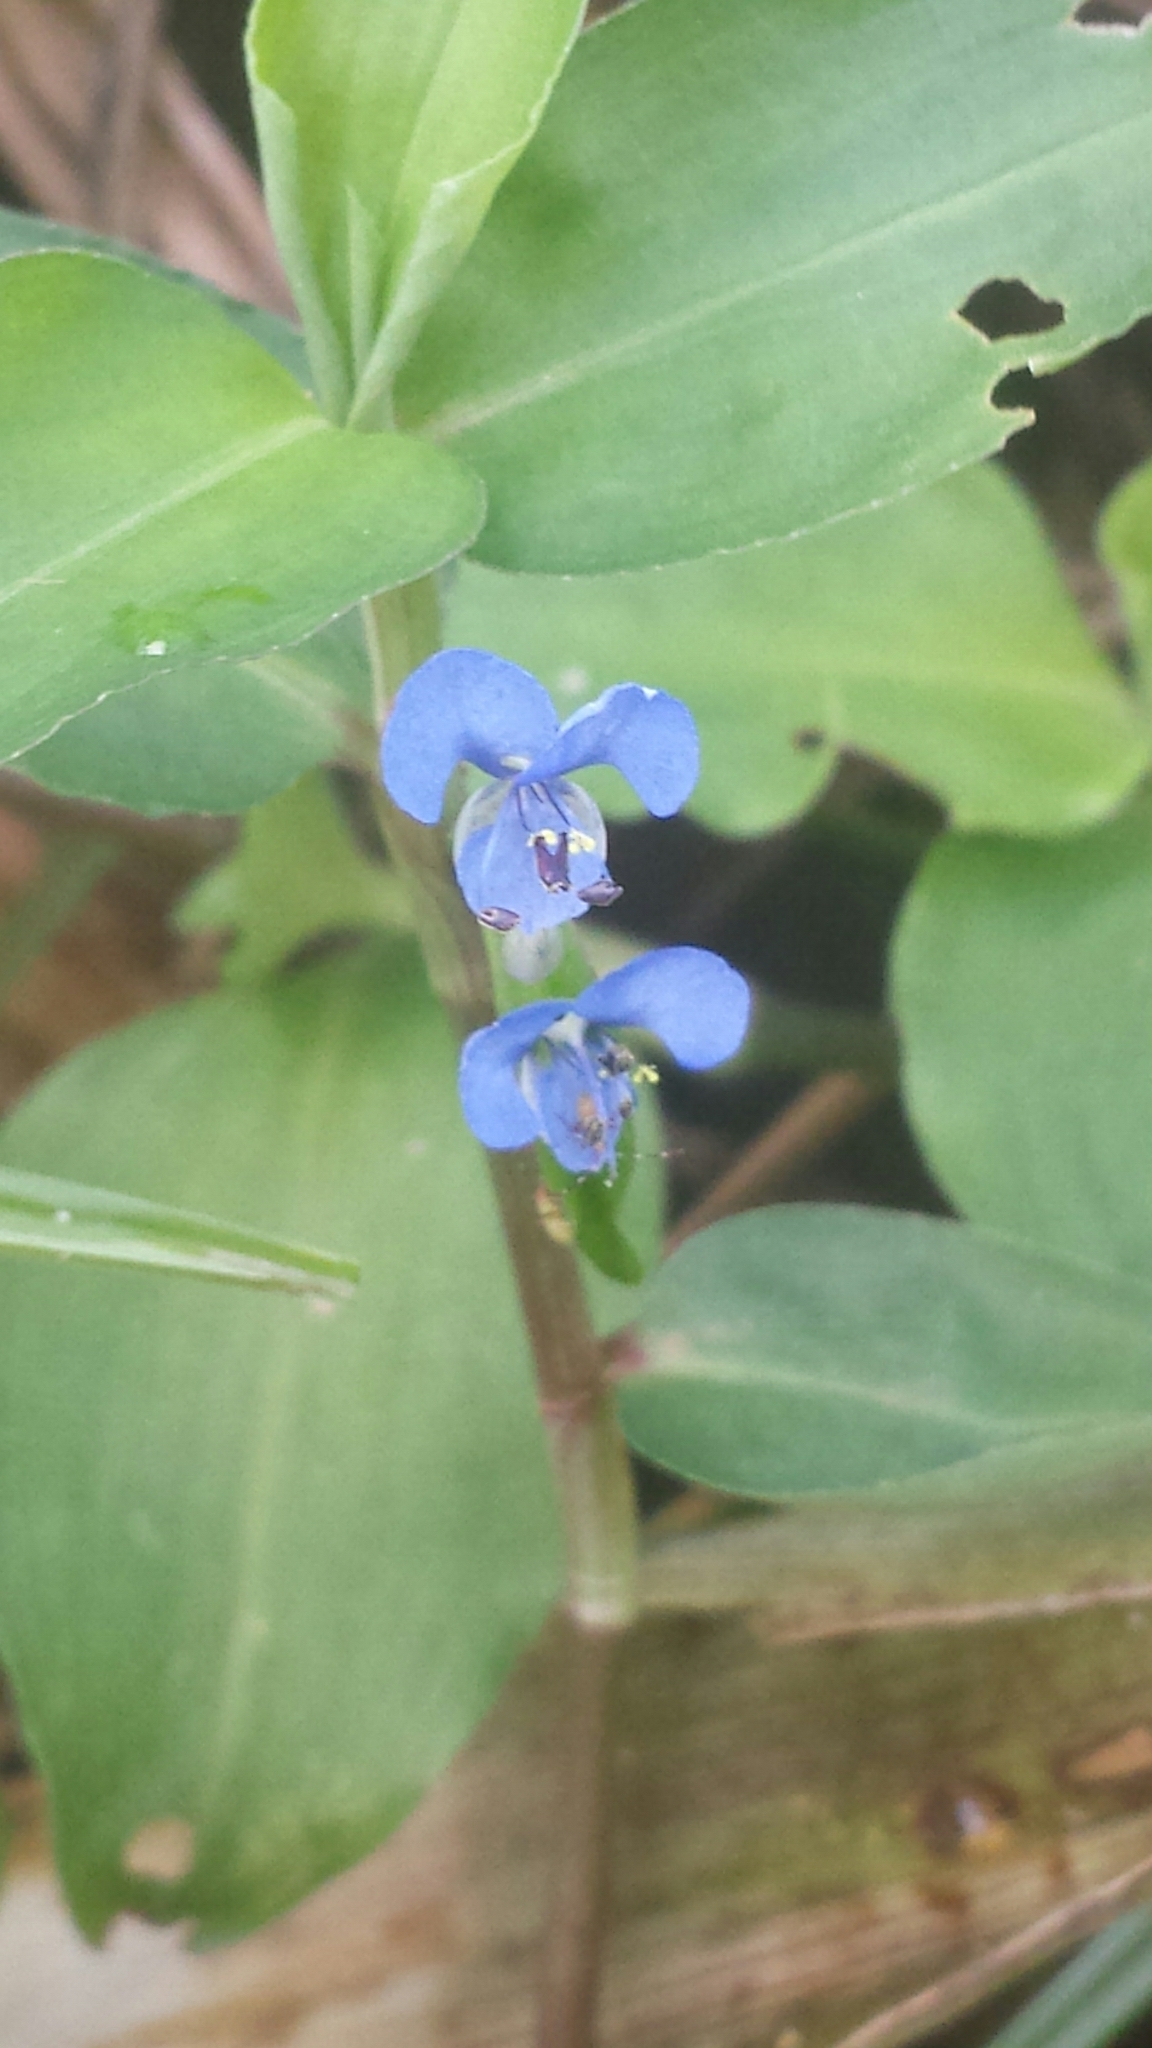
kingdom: Plantae
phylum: Tracheophyta
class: Liliopsida
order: Commelinales
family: Commelinaceae
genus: Commelina
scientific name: Commelina diffusa
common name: Climbing dayflower
